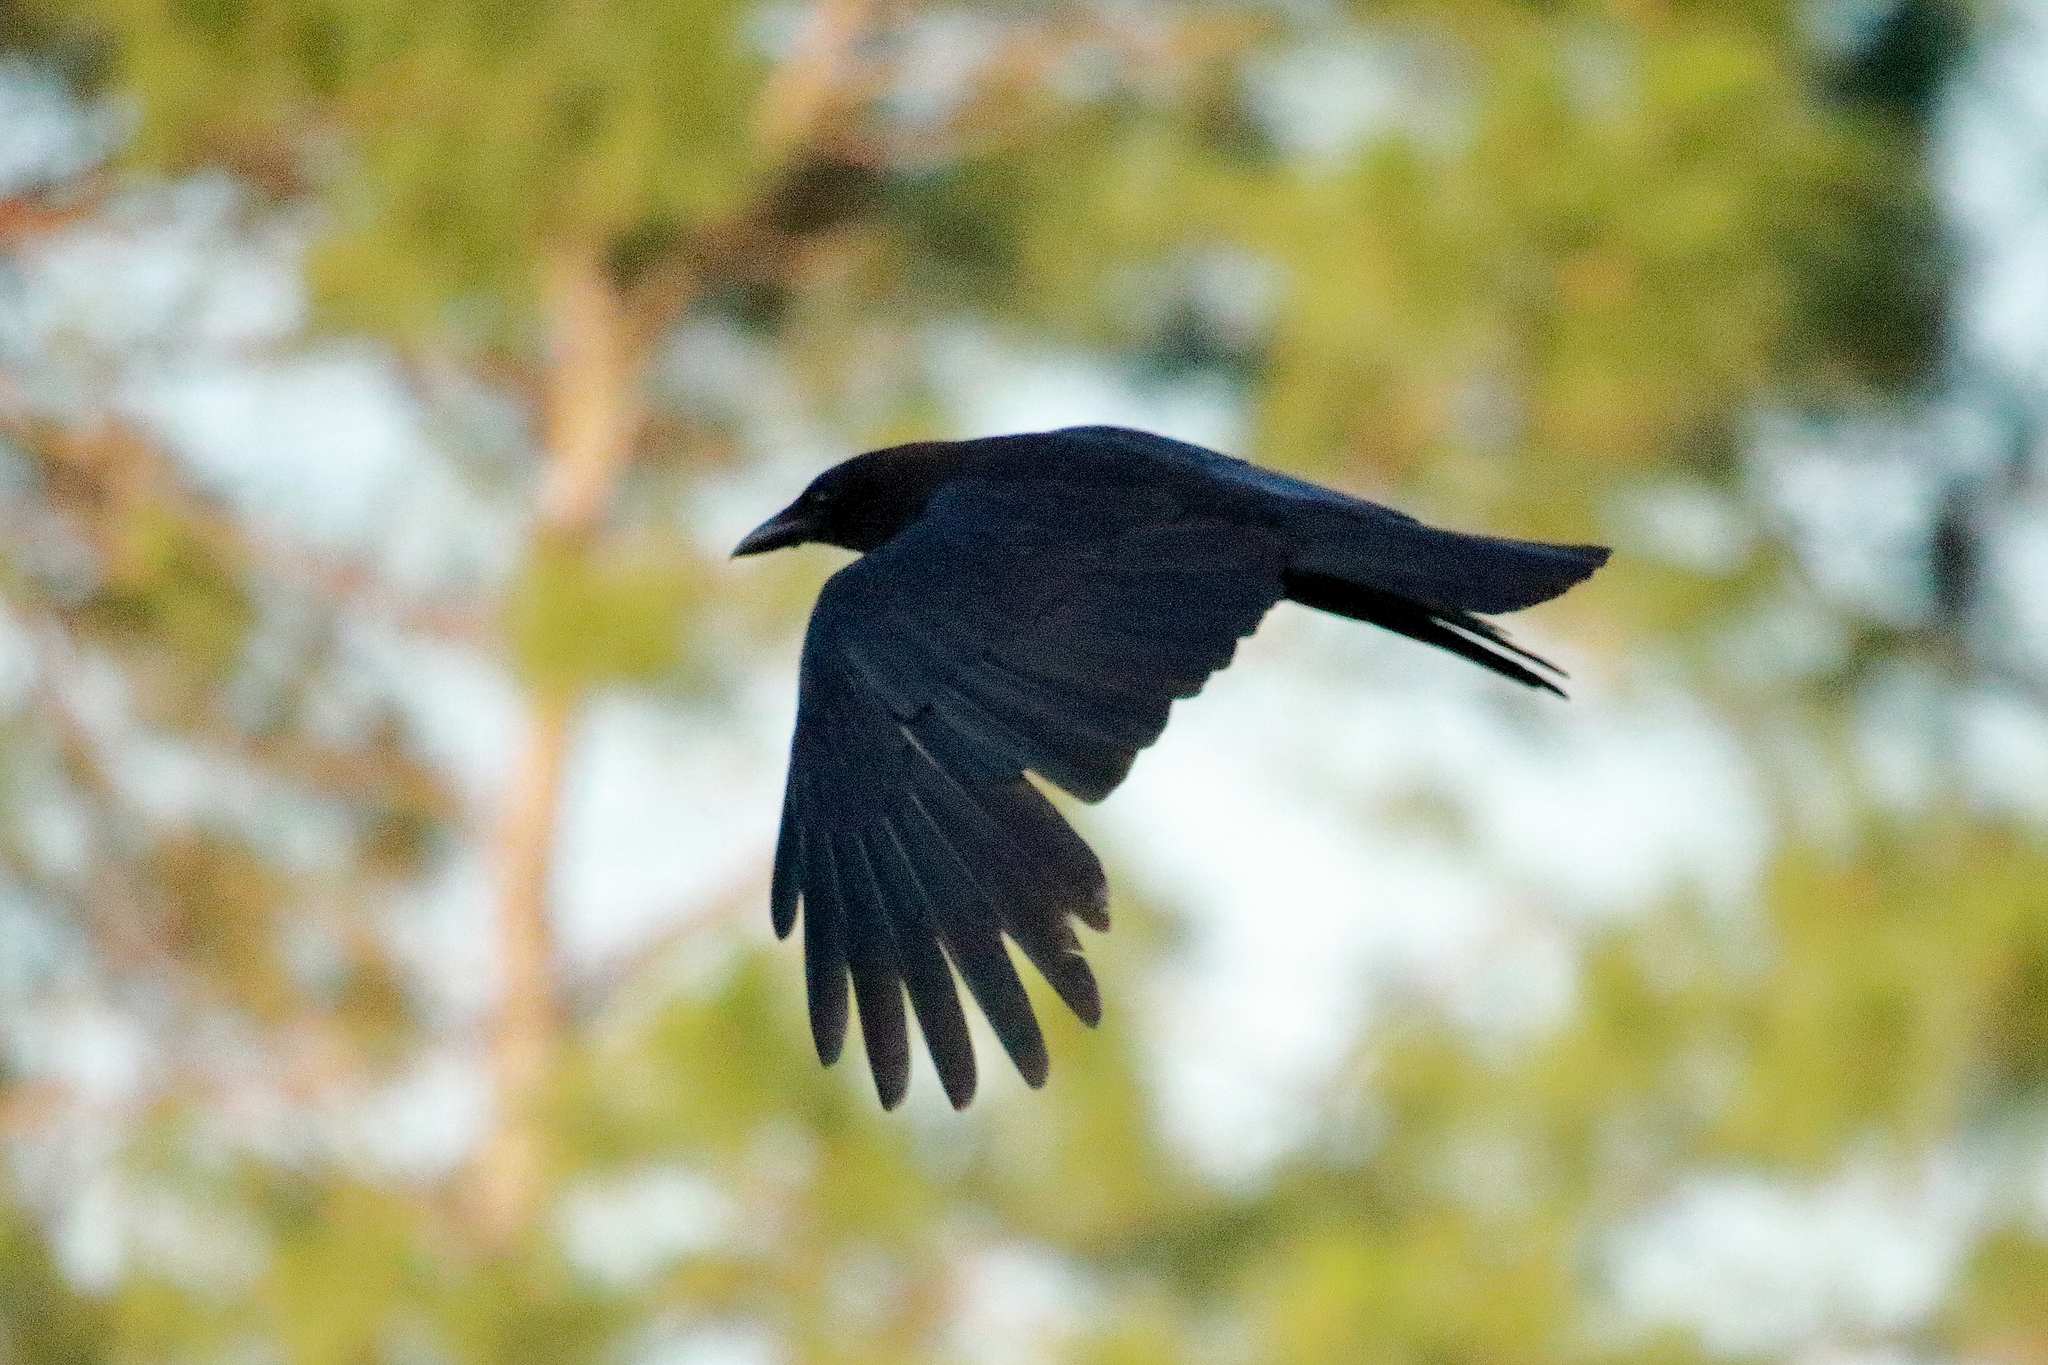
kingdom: Animalia
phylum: Chordata
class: Aves
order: Passeriformes
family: Corvidae
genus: Corvus
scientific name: Corvus
